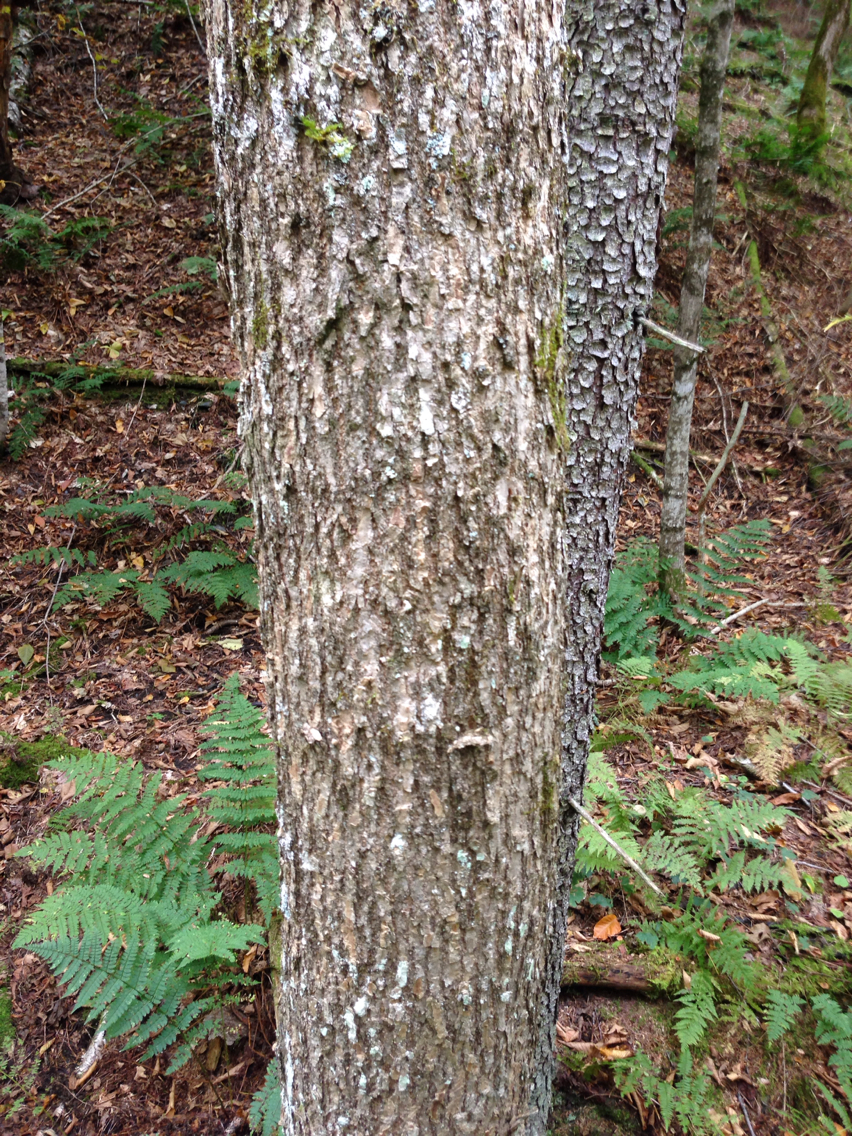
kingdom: Plantae
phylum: Tracheophyta
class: Magnoliopsida
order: Lamiales
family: Oleaceae
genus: Fraxinus
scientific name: Fraxinus nigra
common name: Black ash
